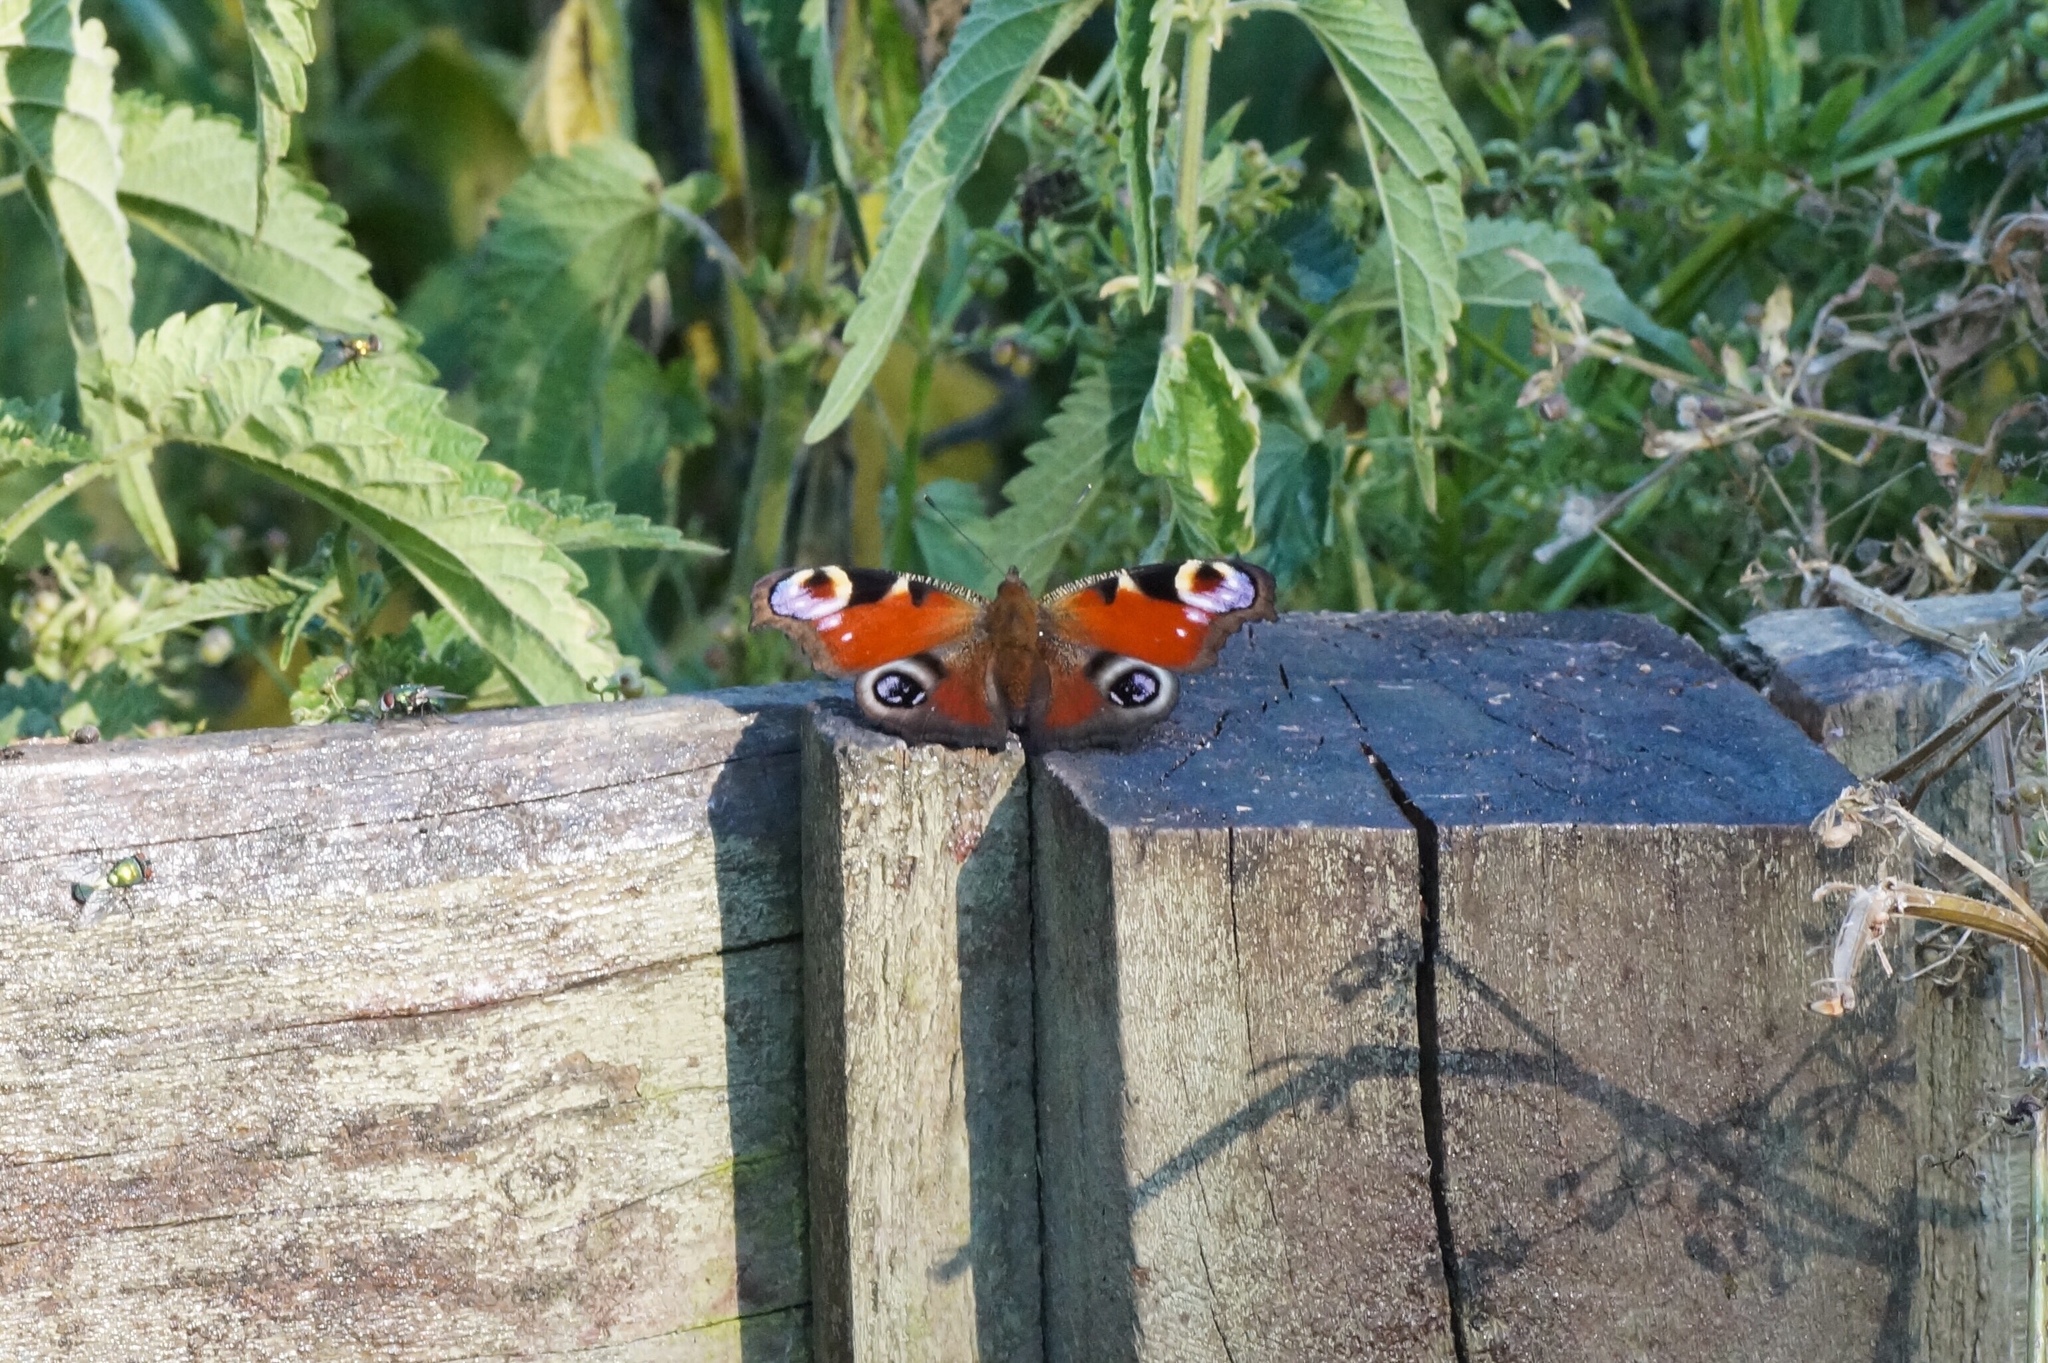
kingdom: Animalia
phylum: Arthropoda
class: Insecta
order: Lepidoptera
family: Nymphalidae
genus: Aglais
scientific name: Aglais io
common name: Peacock
